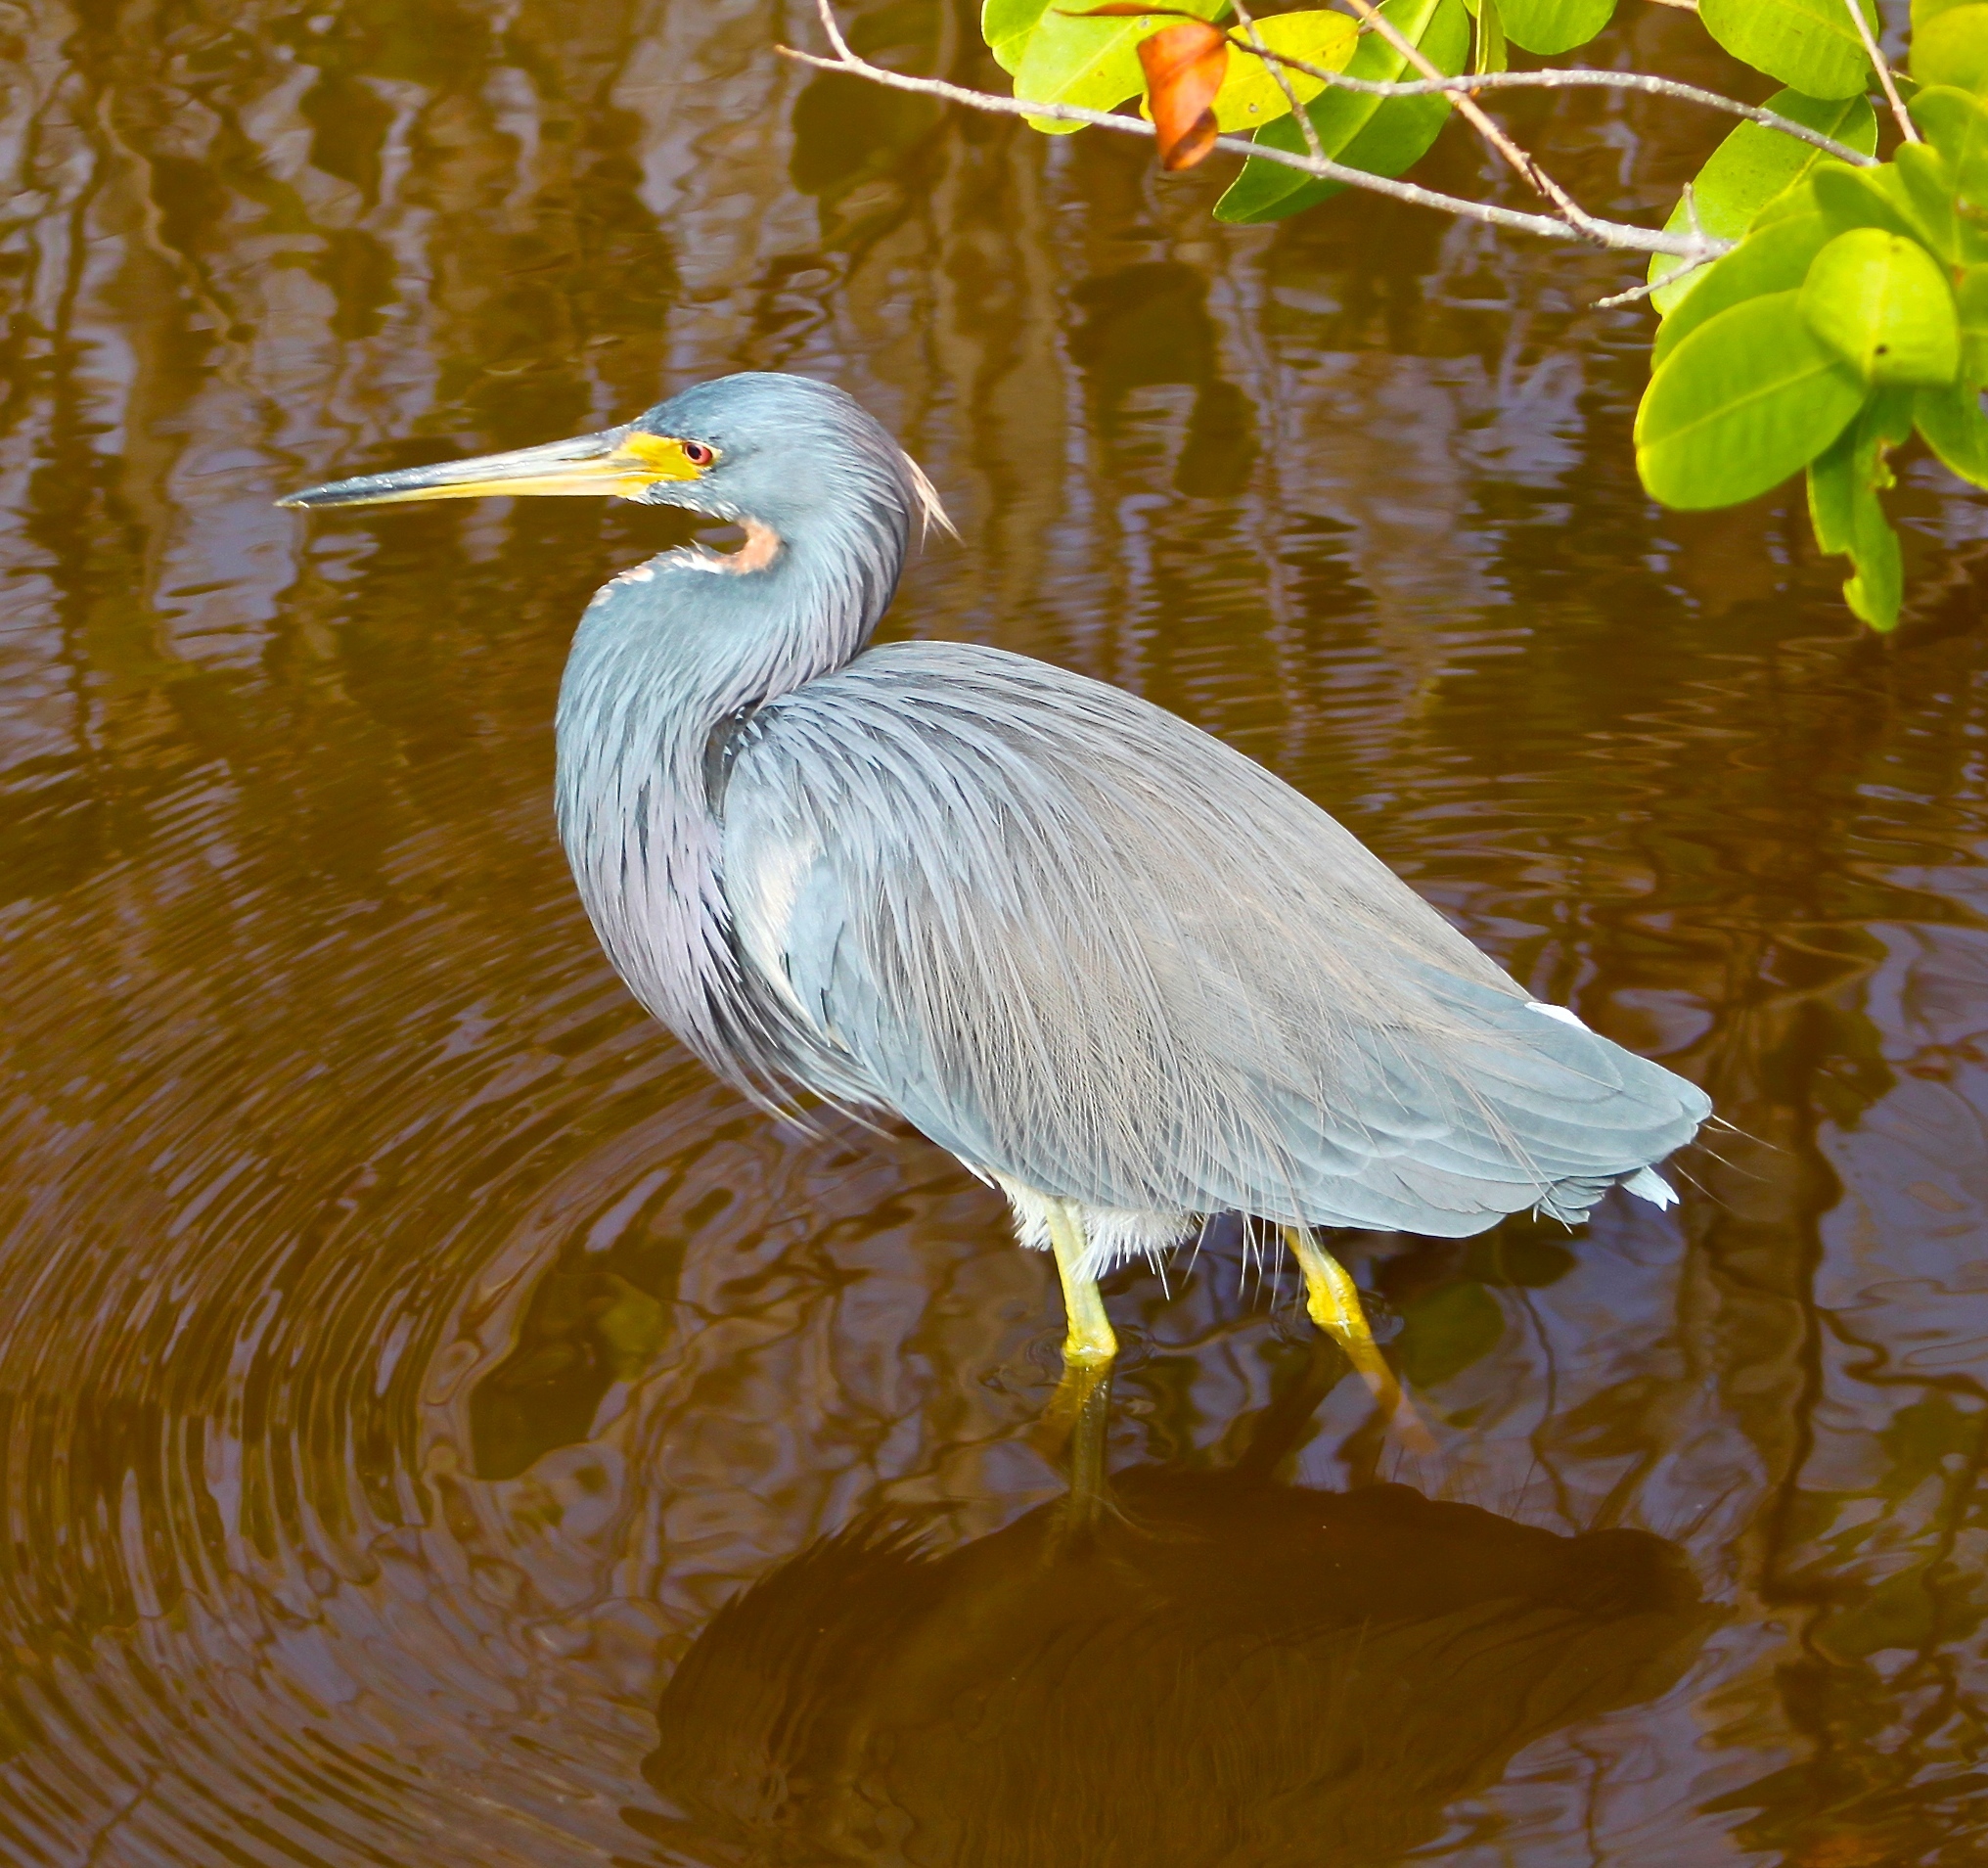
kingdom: Animalia
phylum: Chordata
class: Aves
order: Pelecaniformes
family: Ardeidae
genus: Egretta
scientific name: Egretta tricolor
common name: Tricolored heron
